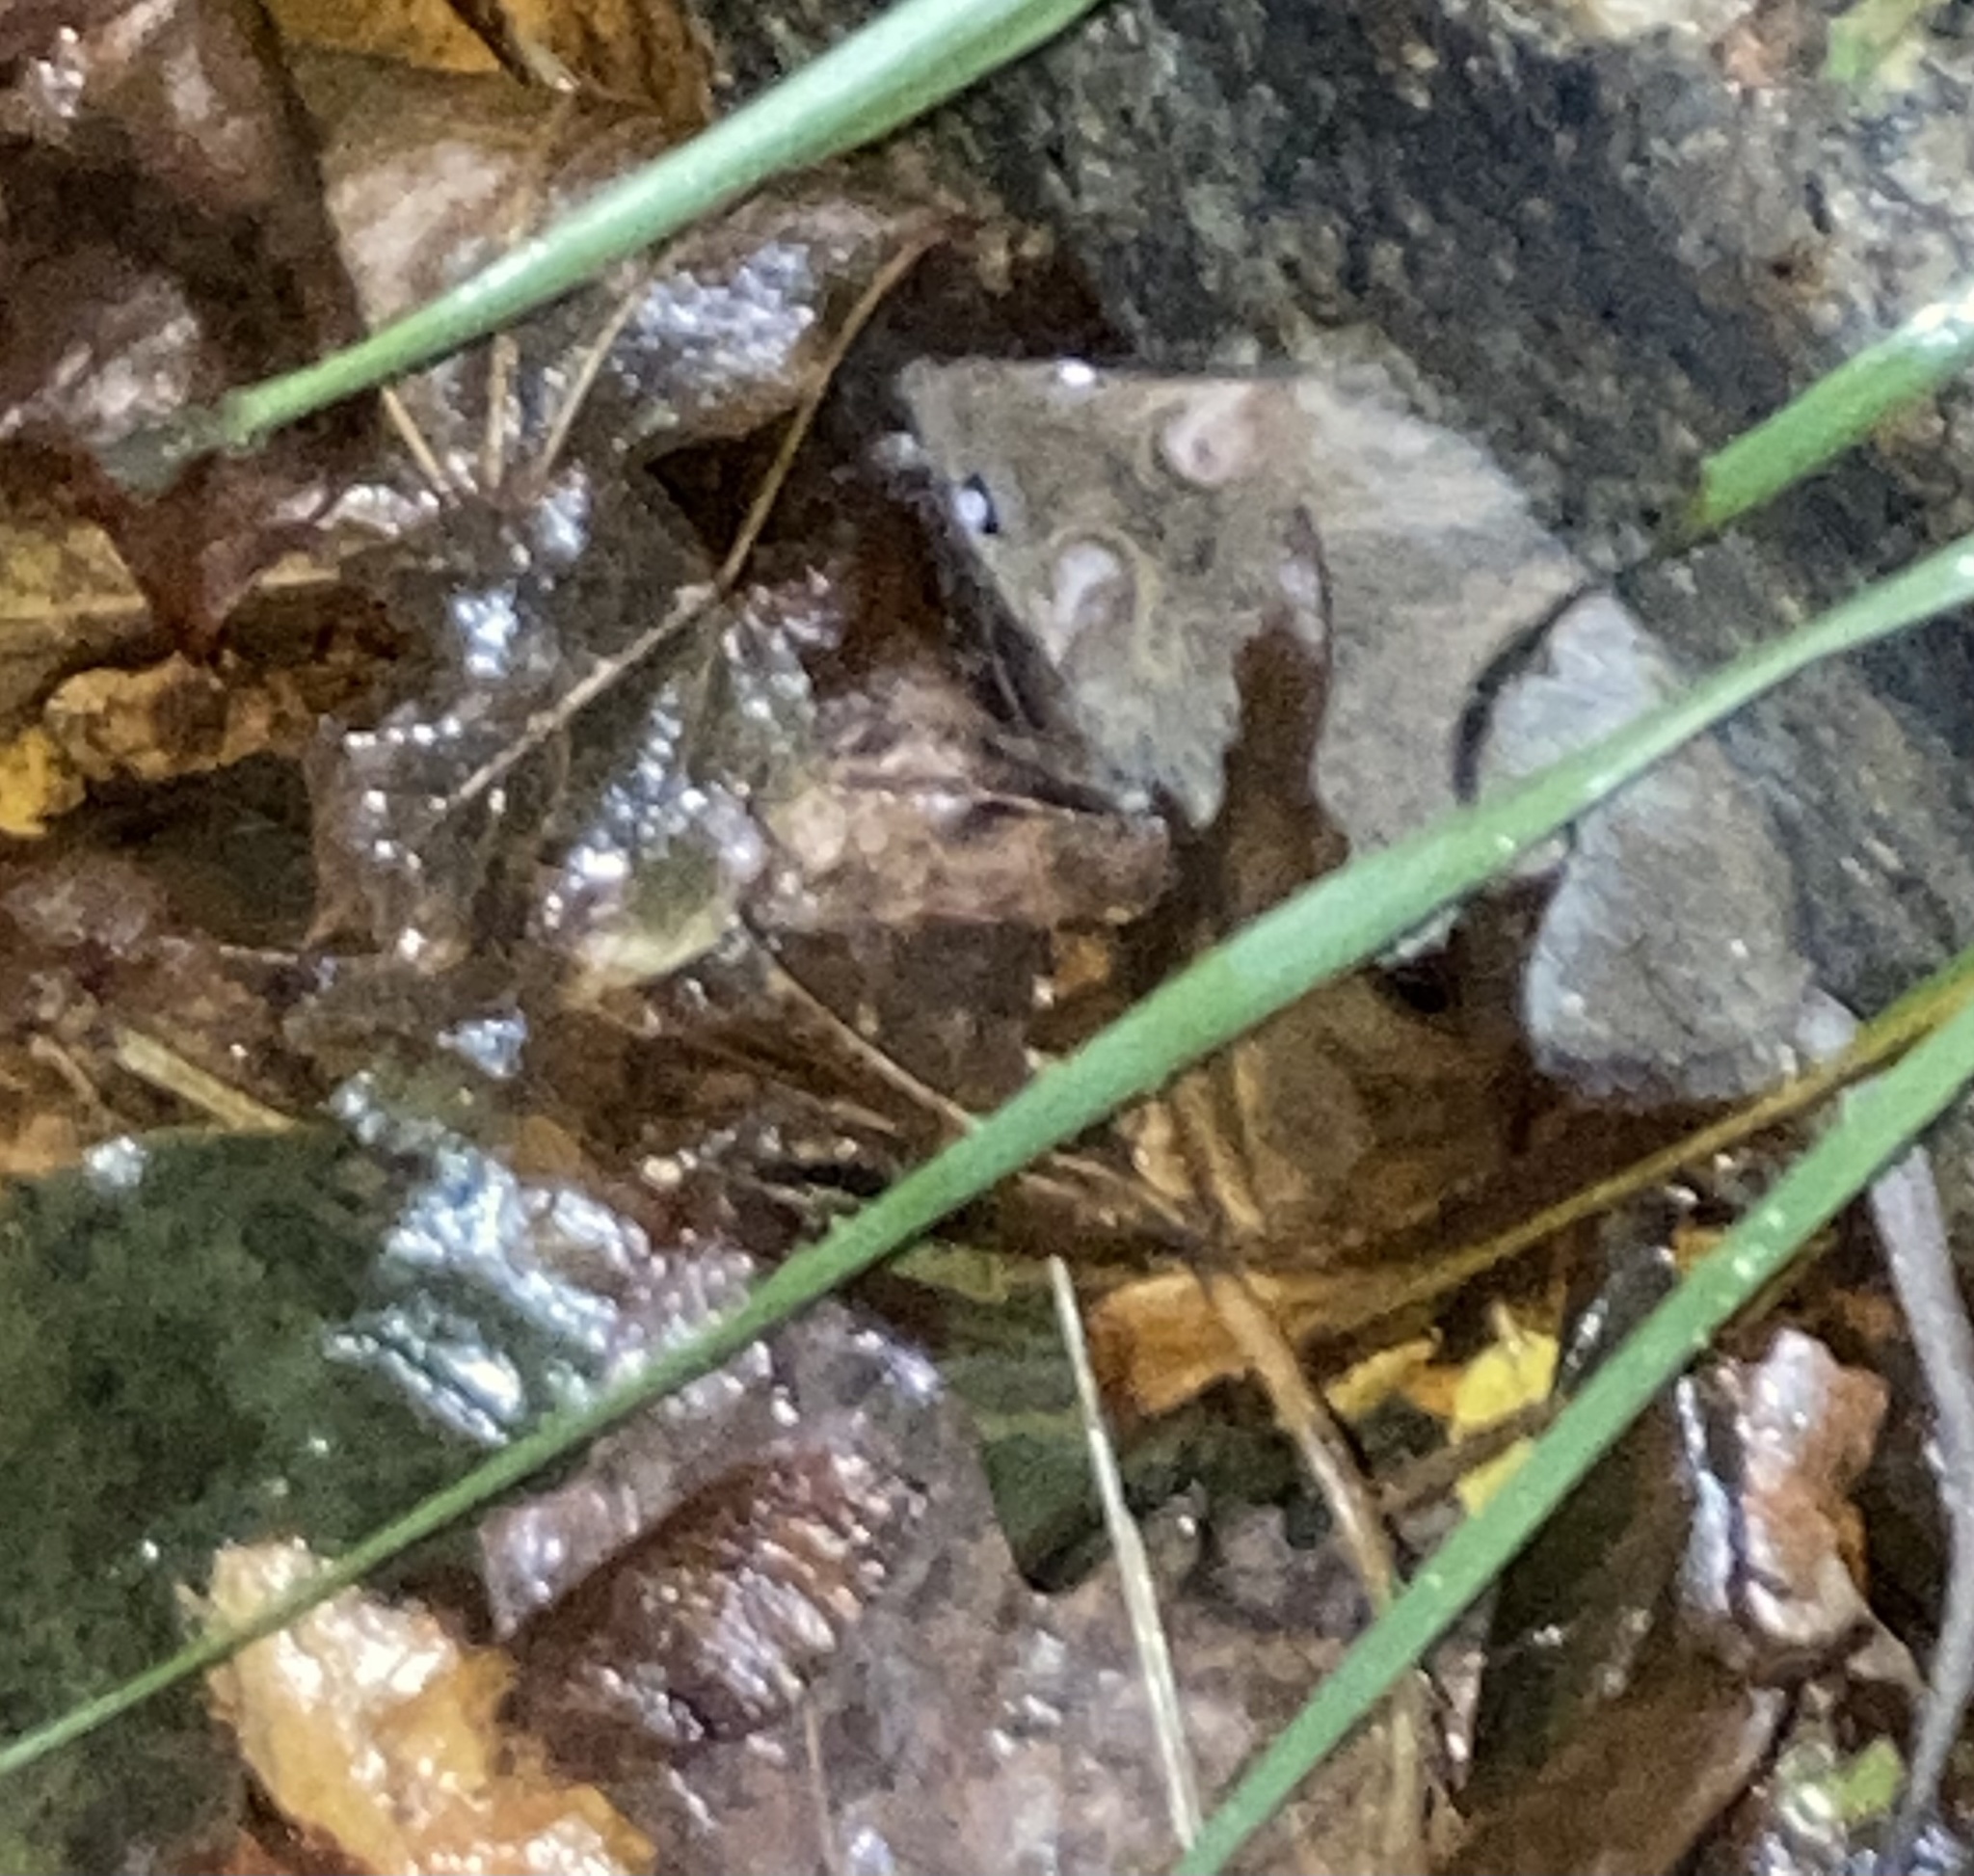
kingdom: Animalia
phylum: Chordata
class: Mammalia
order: Rodentia
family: Muridae
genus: Mus
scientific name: Mus musculus
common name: House mouse
